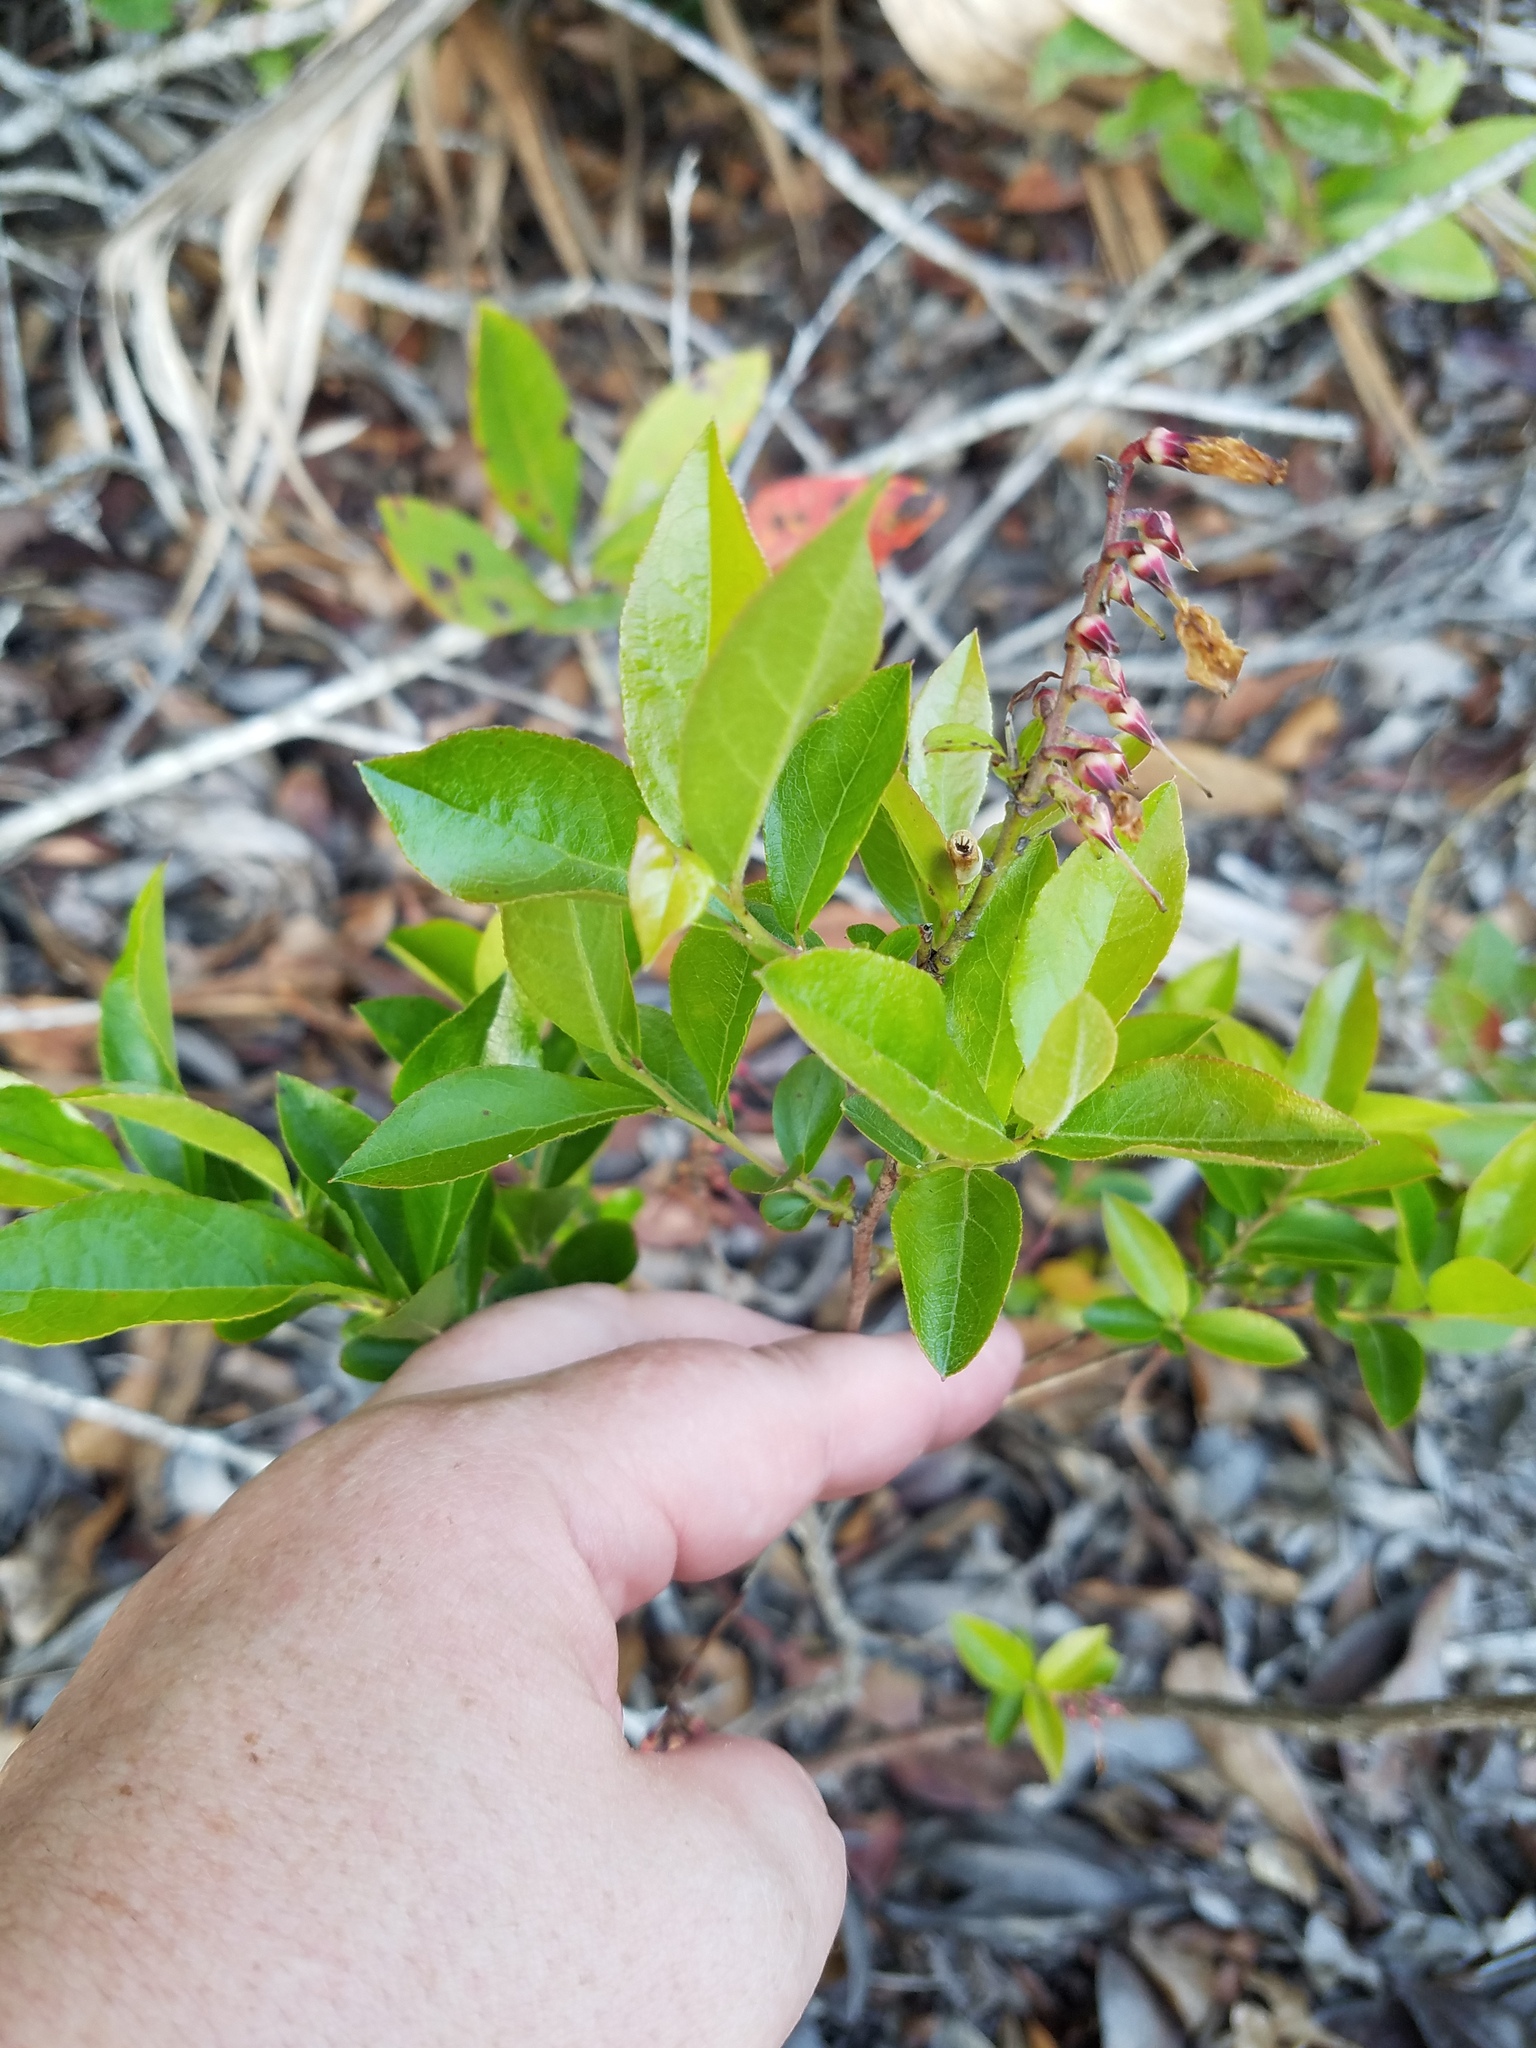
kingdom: Plantae
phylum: Tracheophyta
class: Magnoliopsida
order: Ericales
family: Ericaceae
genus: Eubotrys
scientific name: Eubotrys racemosa
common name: Fetterbush
